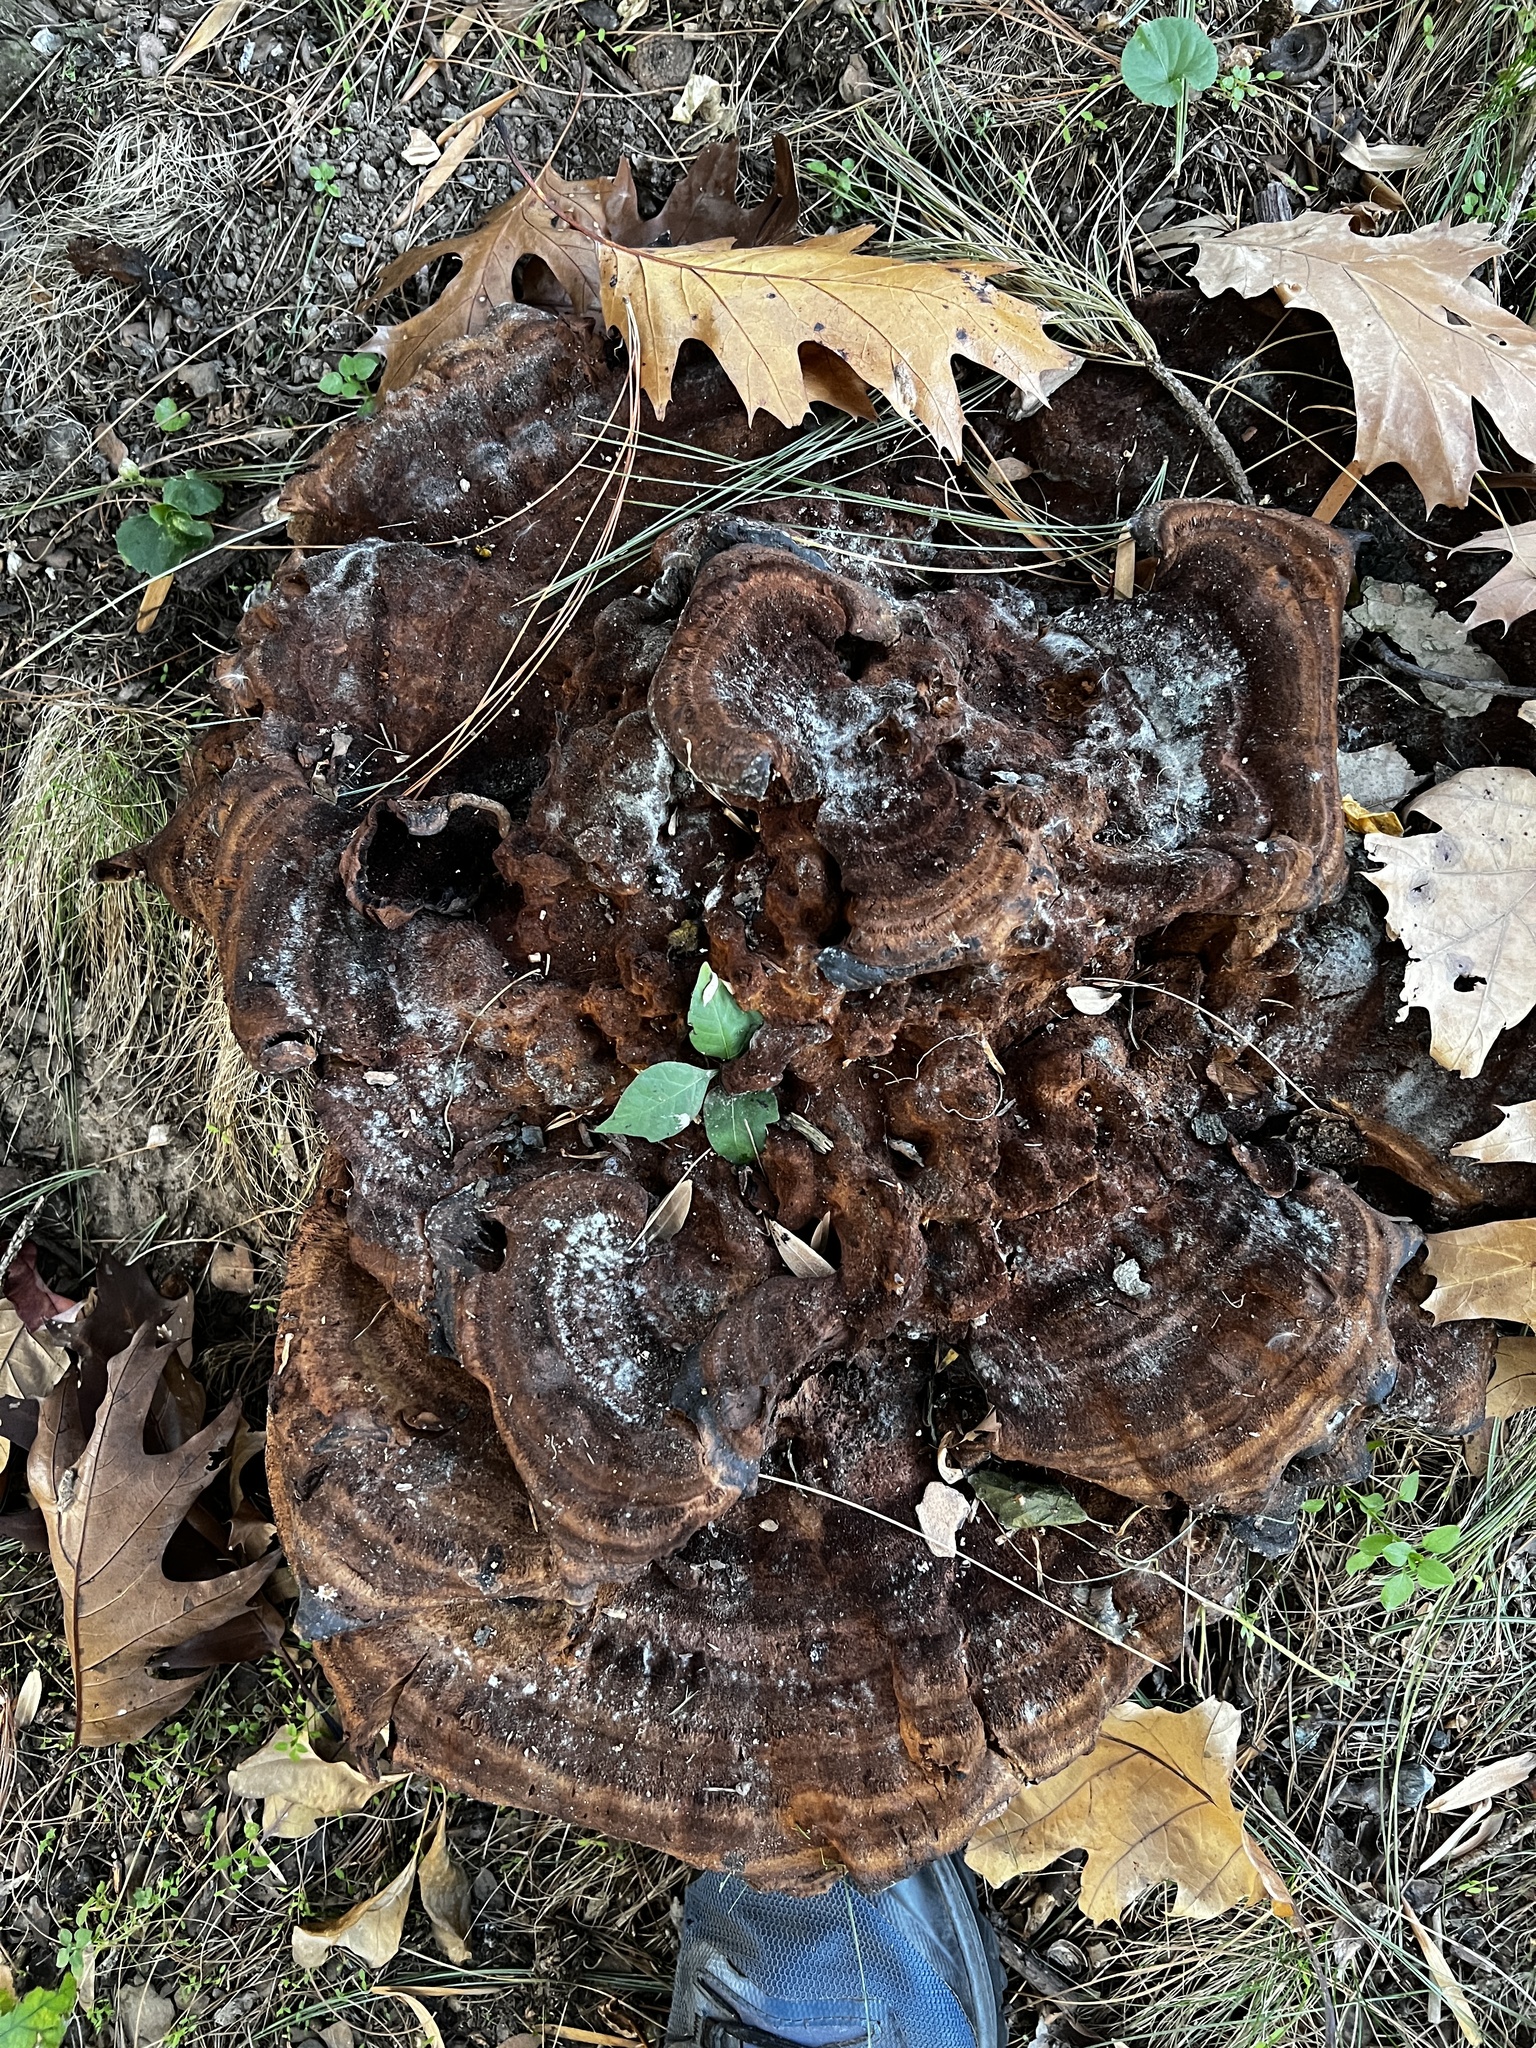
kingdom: Fungi
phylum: Basidiomycota
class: Agaricomycetes
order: Polyporales
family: Laetiporaceae
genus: Phaeolus
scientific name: Phaeolus schweinitzii
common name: Dyer's mazegill
